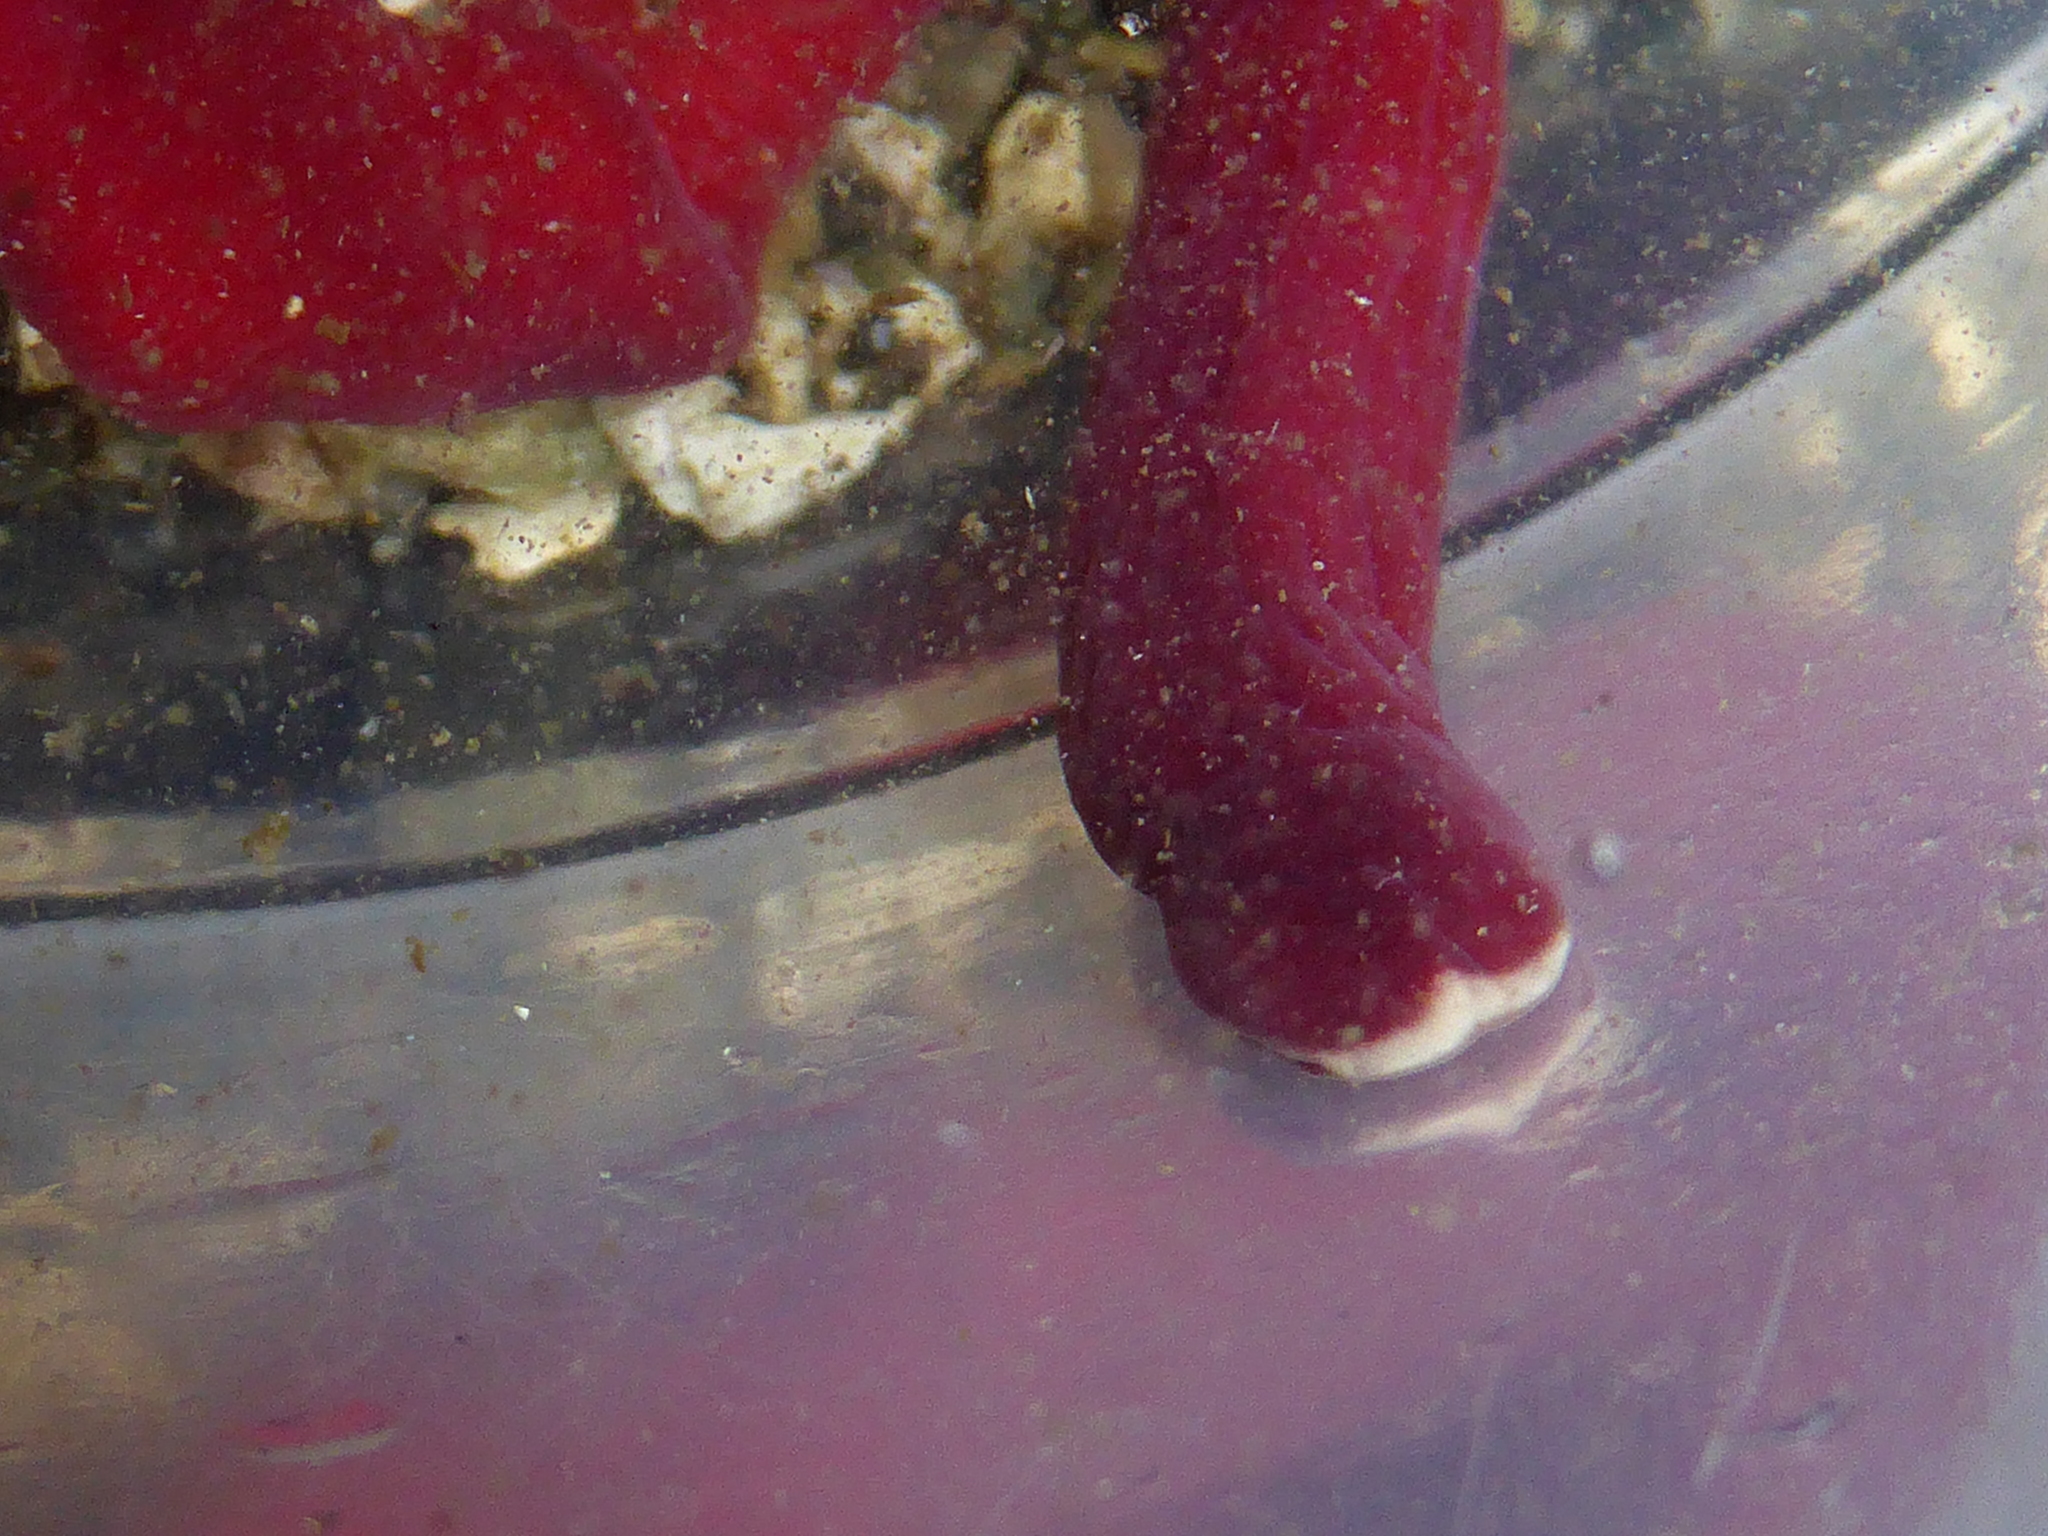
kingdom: Animalia
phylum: Nemertea
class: Pilidiophora
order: Heteronemertea
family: Lineidae
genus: Kulikovia
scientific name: Kulikovia montgomeryi
